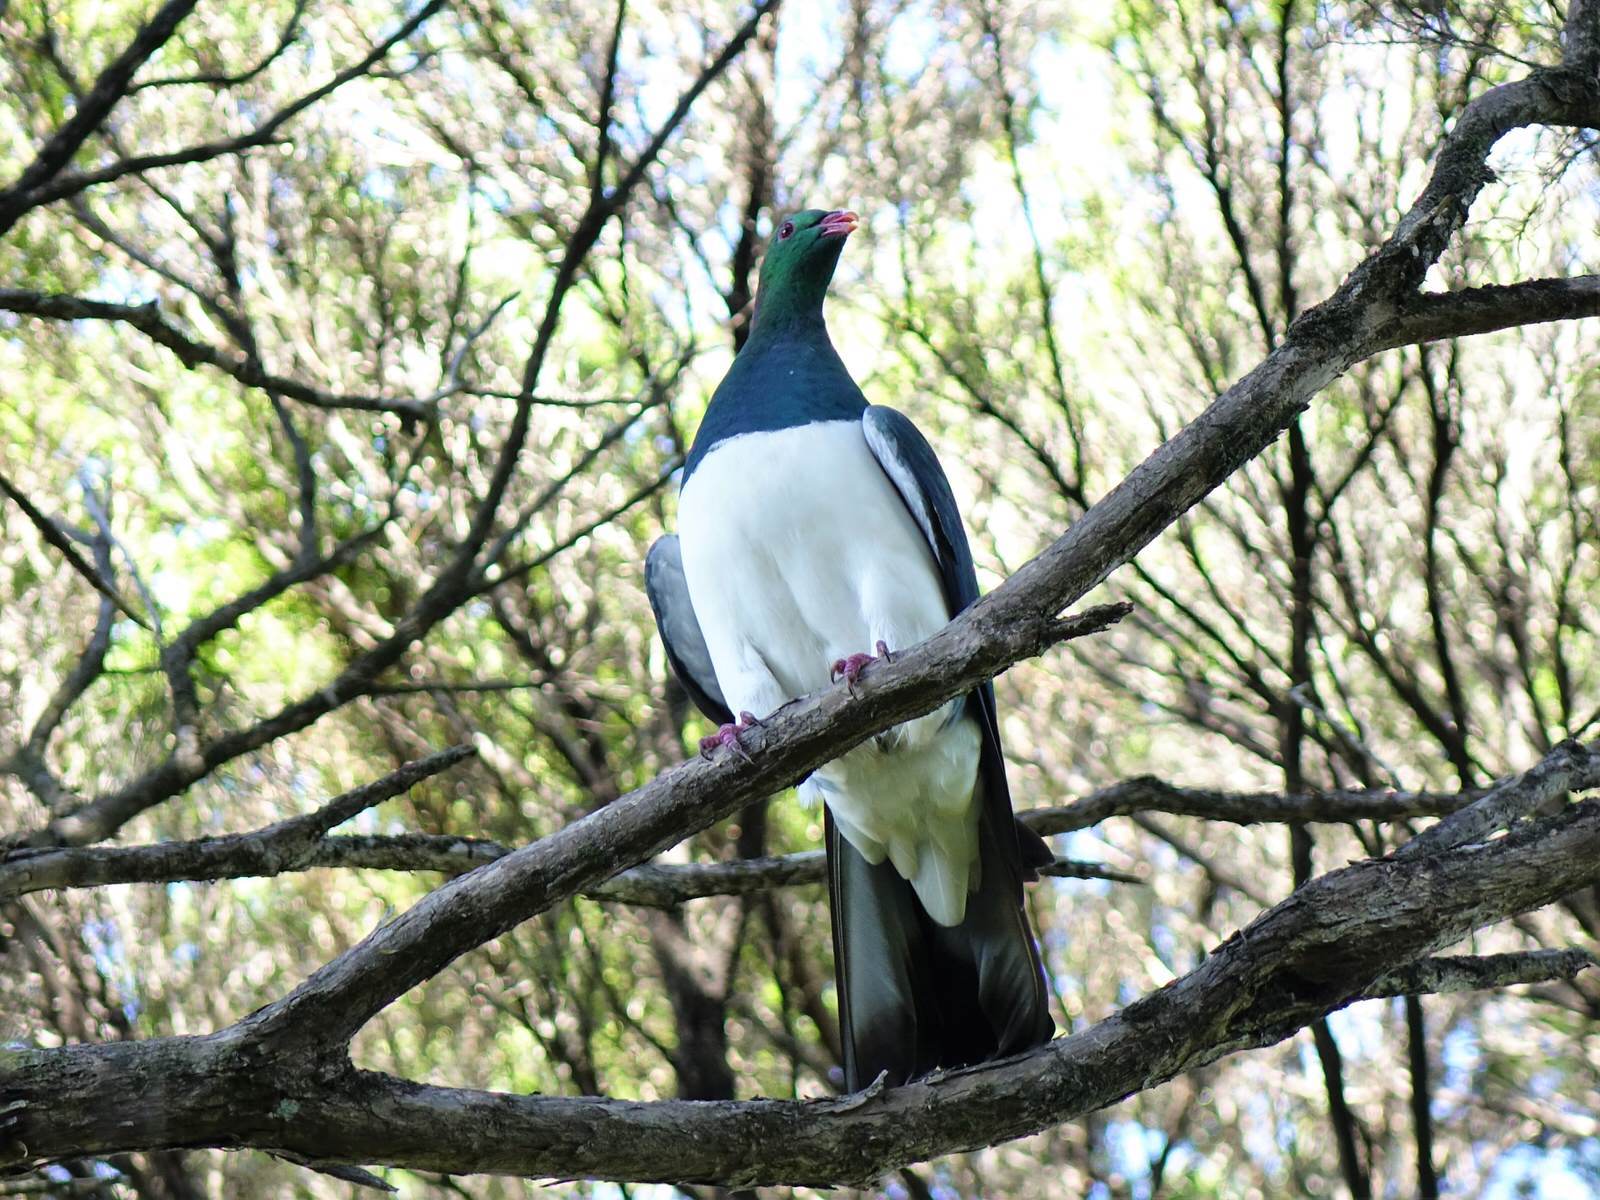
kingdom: Animalia
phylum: Chordata
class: Aves
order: Columbiformes
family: Columbidae
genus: Hemiphaga
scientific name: Hemiphaga novaeseelandiae
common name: New zealand pigeon
